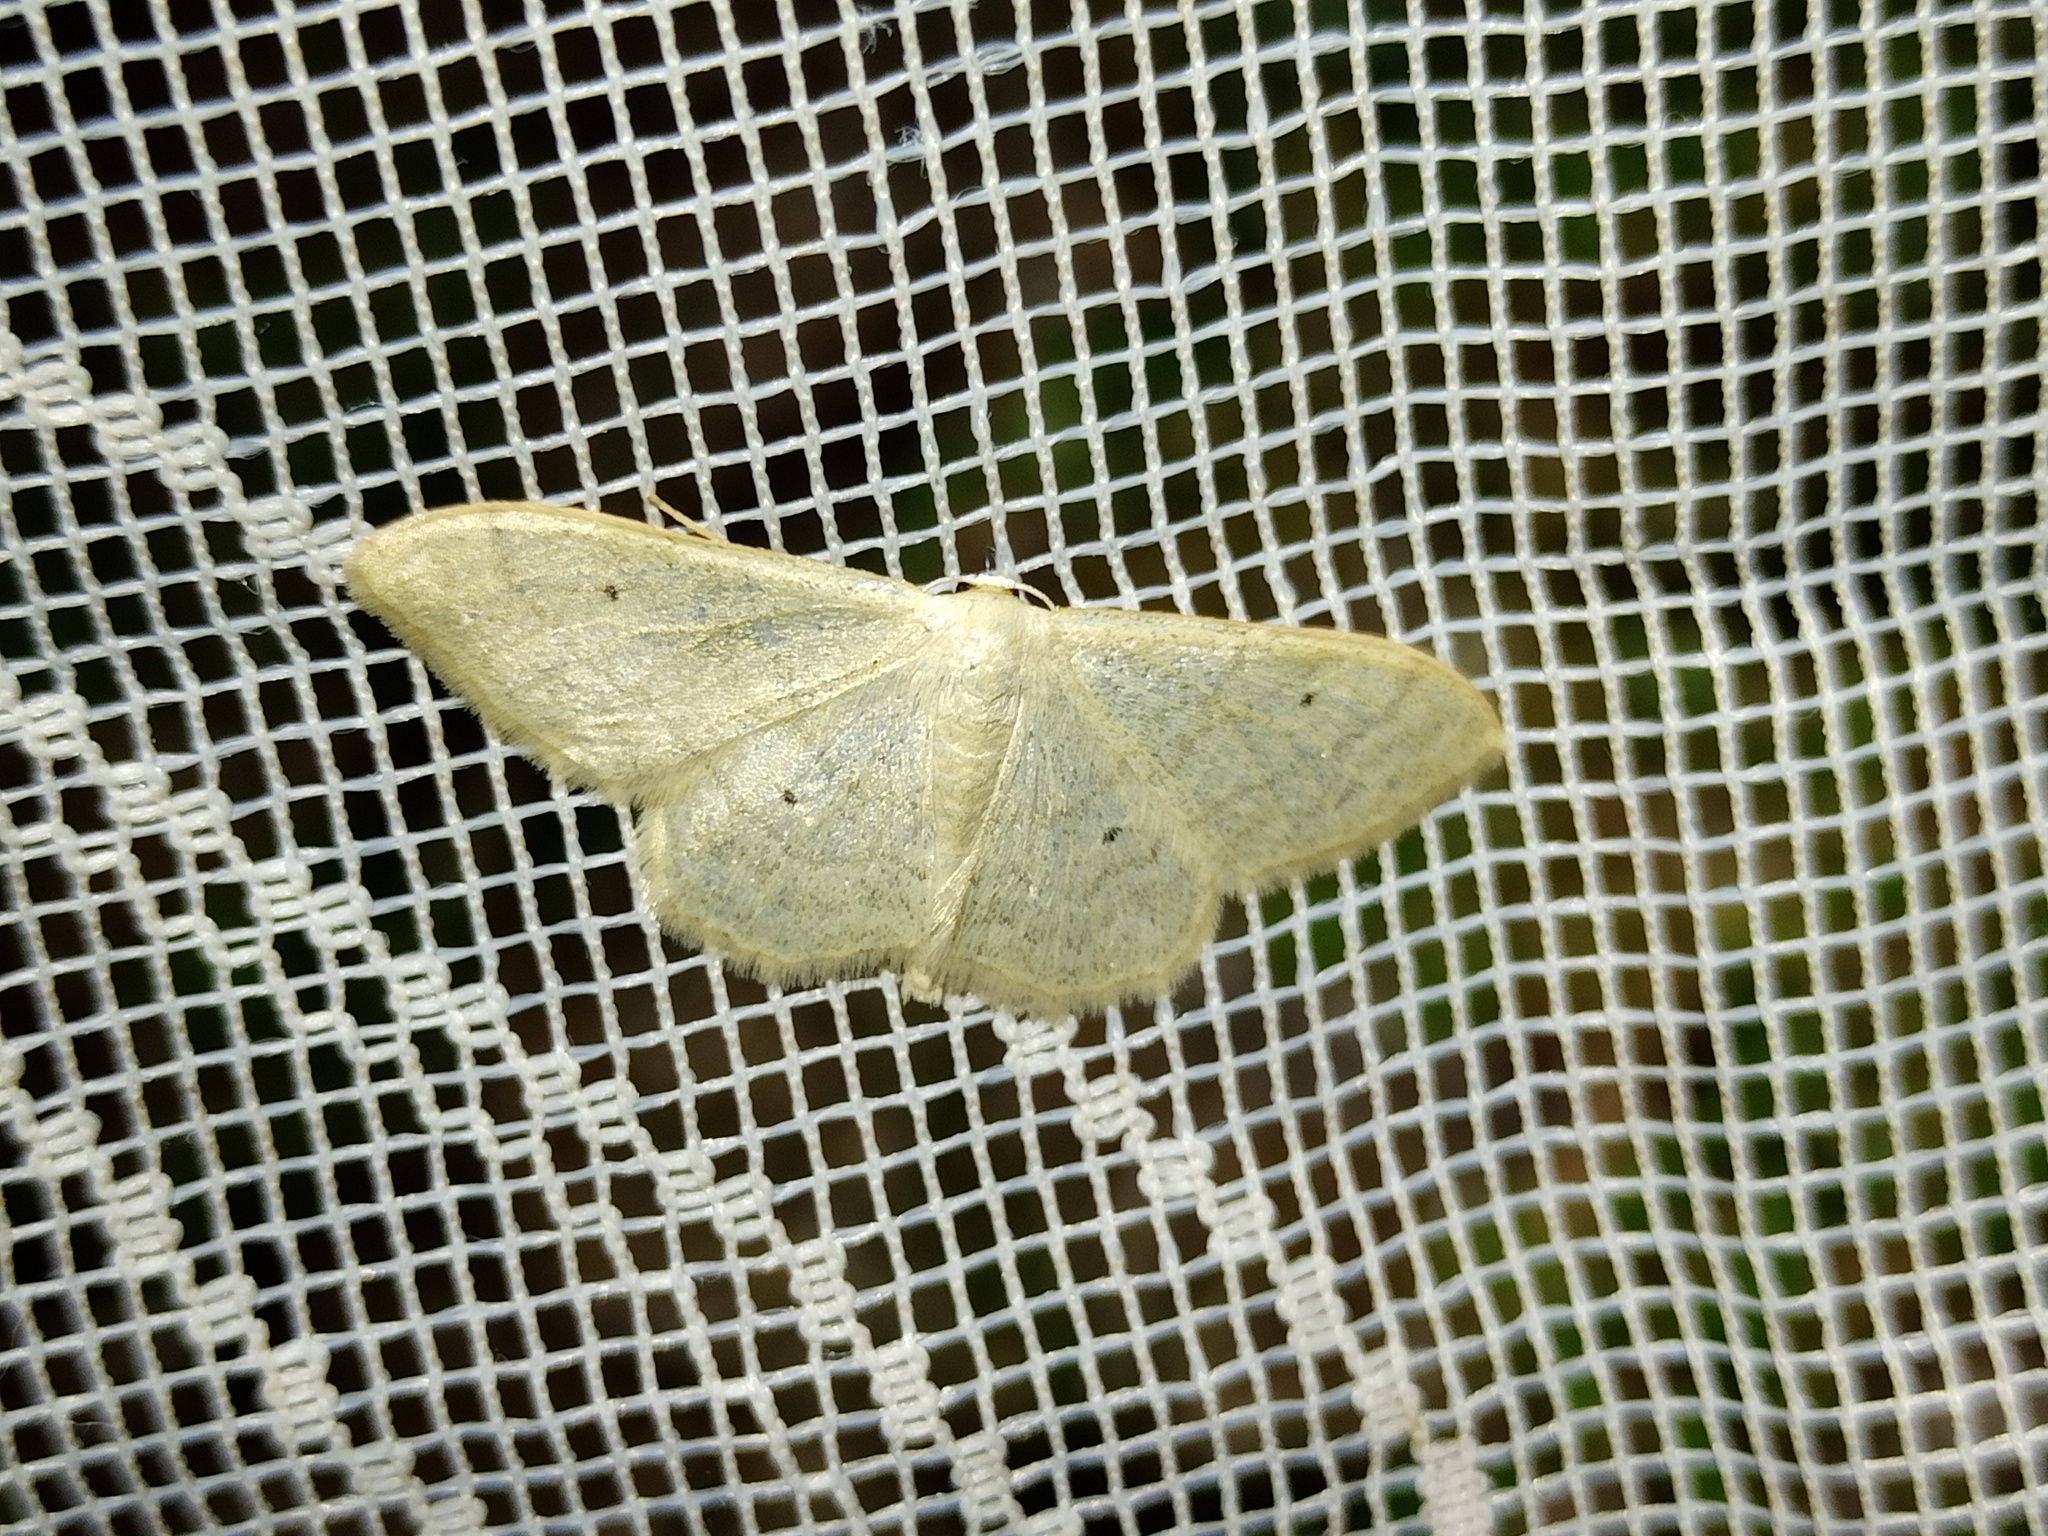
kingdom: Animalia
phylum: Arthropoda
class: Insecta
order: Lepidoptera
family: Geometridae
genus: Idaea
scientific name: Idaea straminata
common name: Plain wave
